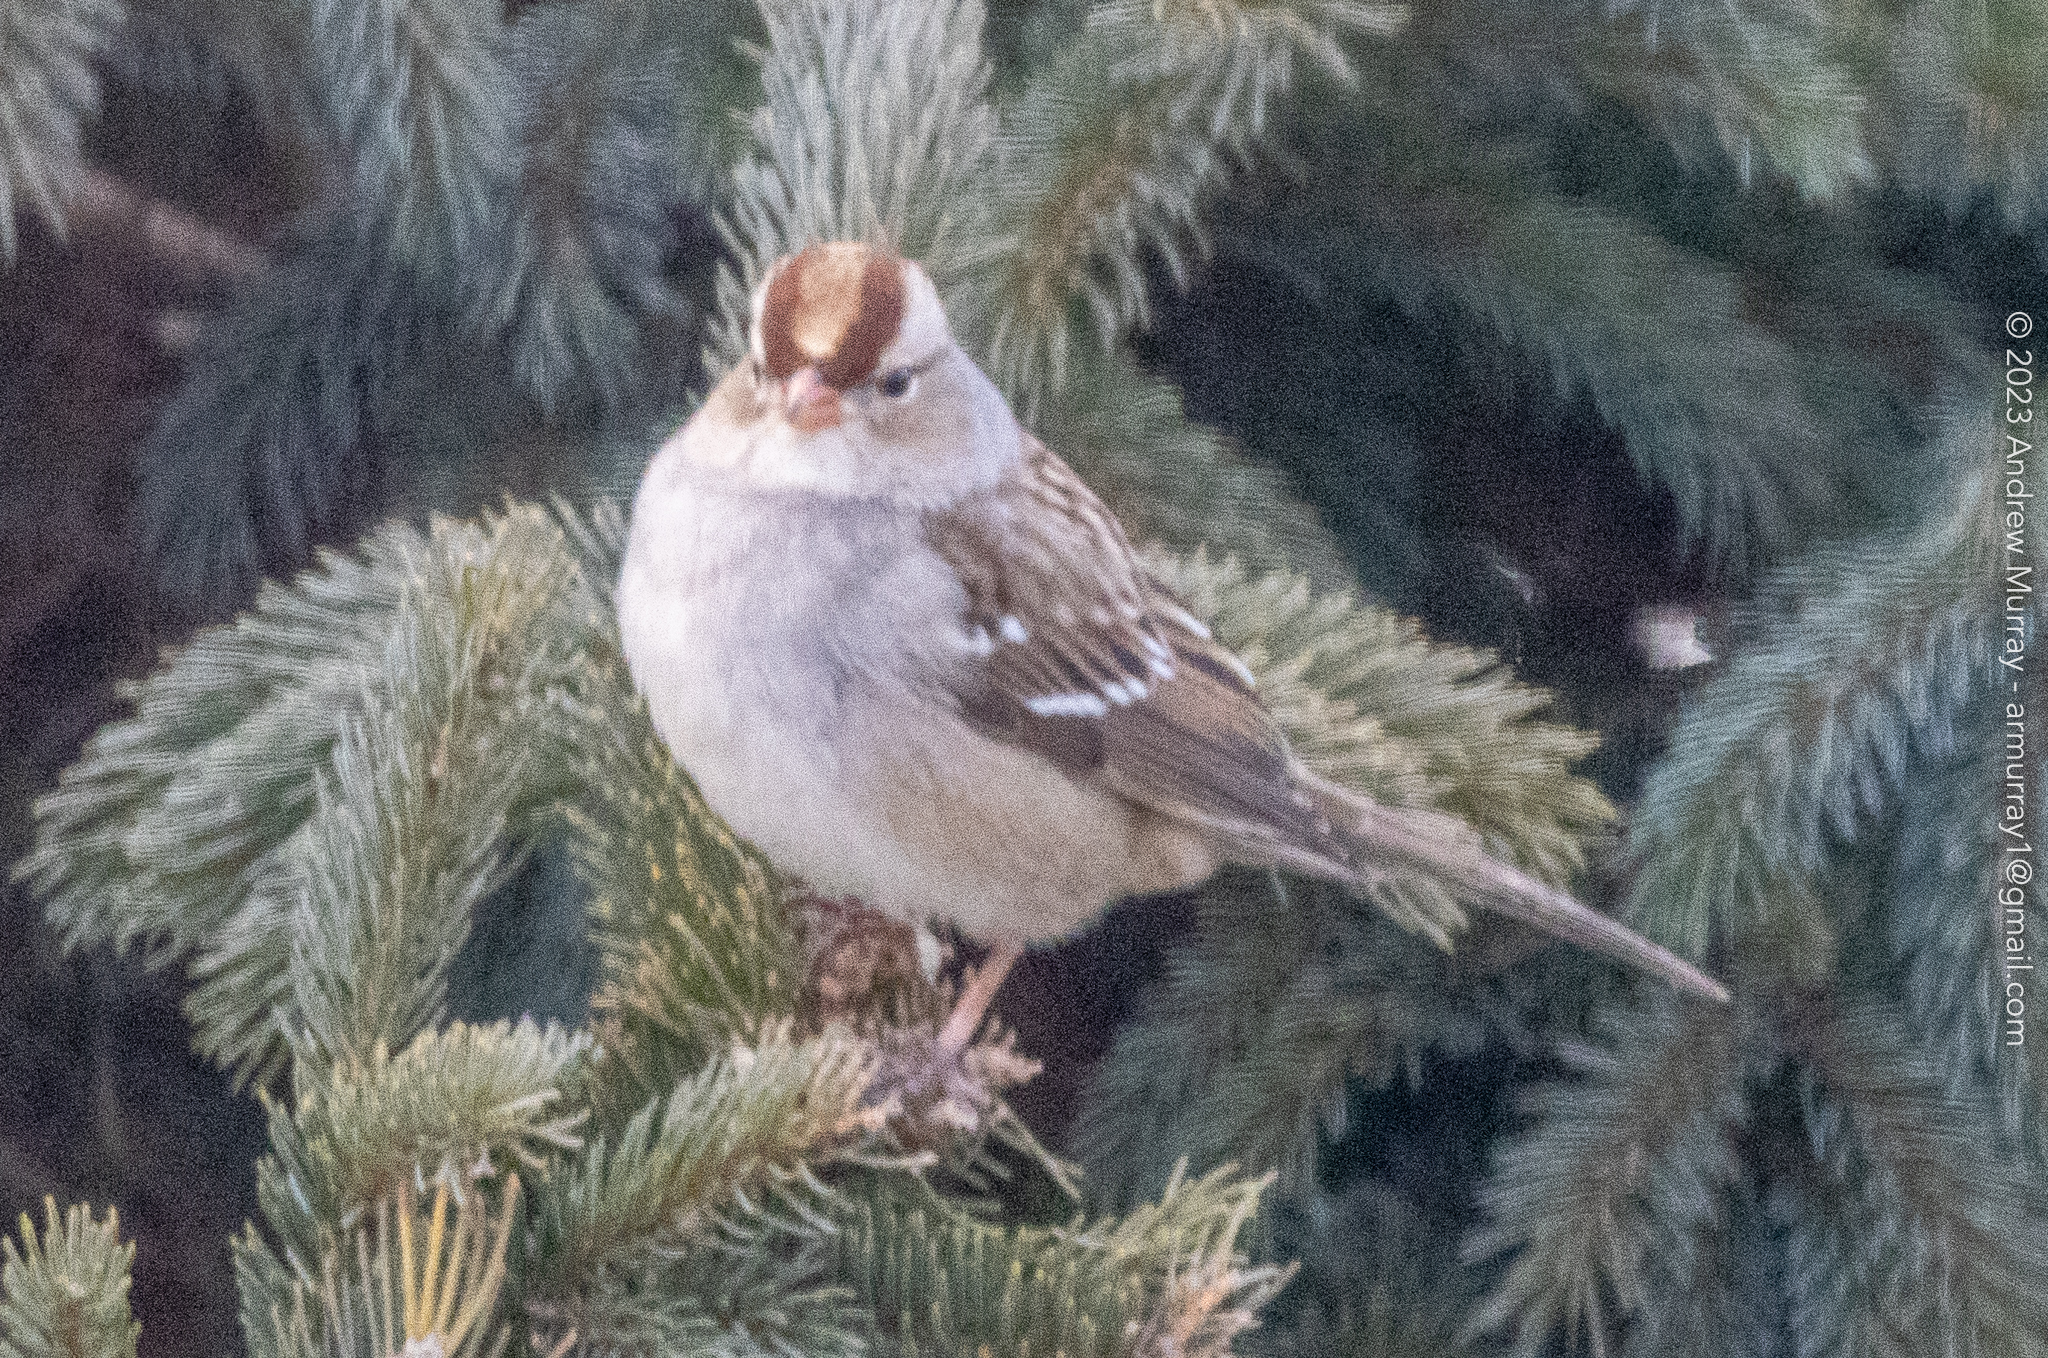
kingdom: Animalia
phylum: Chordata
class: Aves
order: Passeriformes
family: Passerellidae
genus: Zonotrichia
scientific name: Zonotrichia leucophrys
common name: White-crowned sparrow
